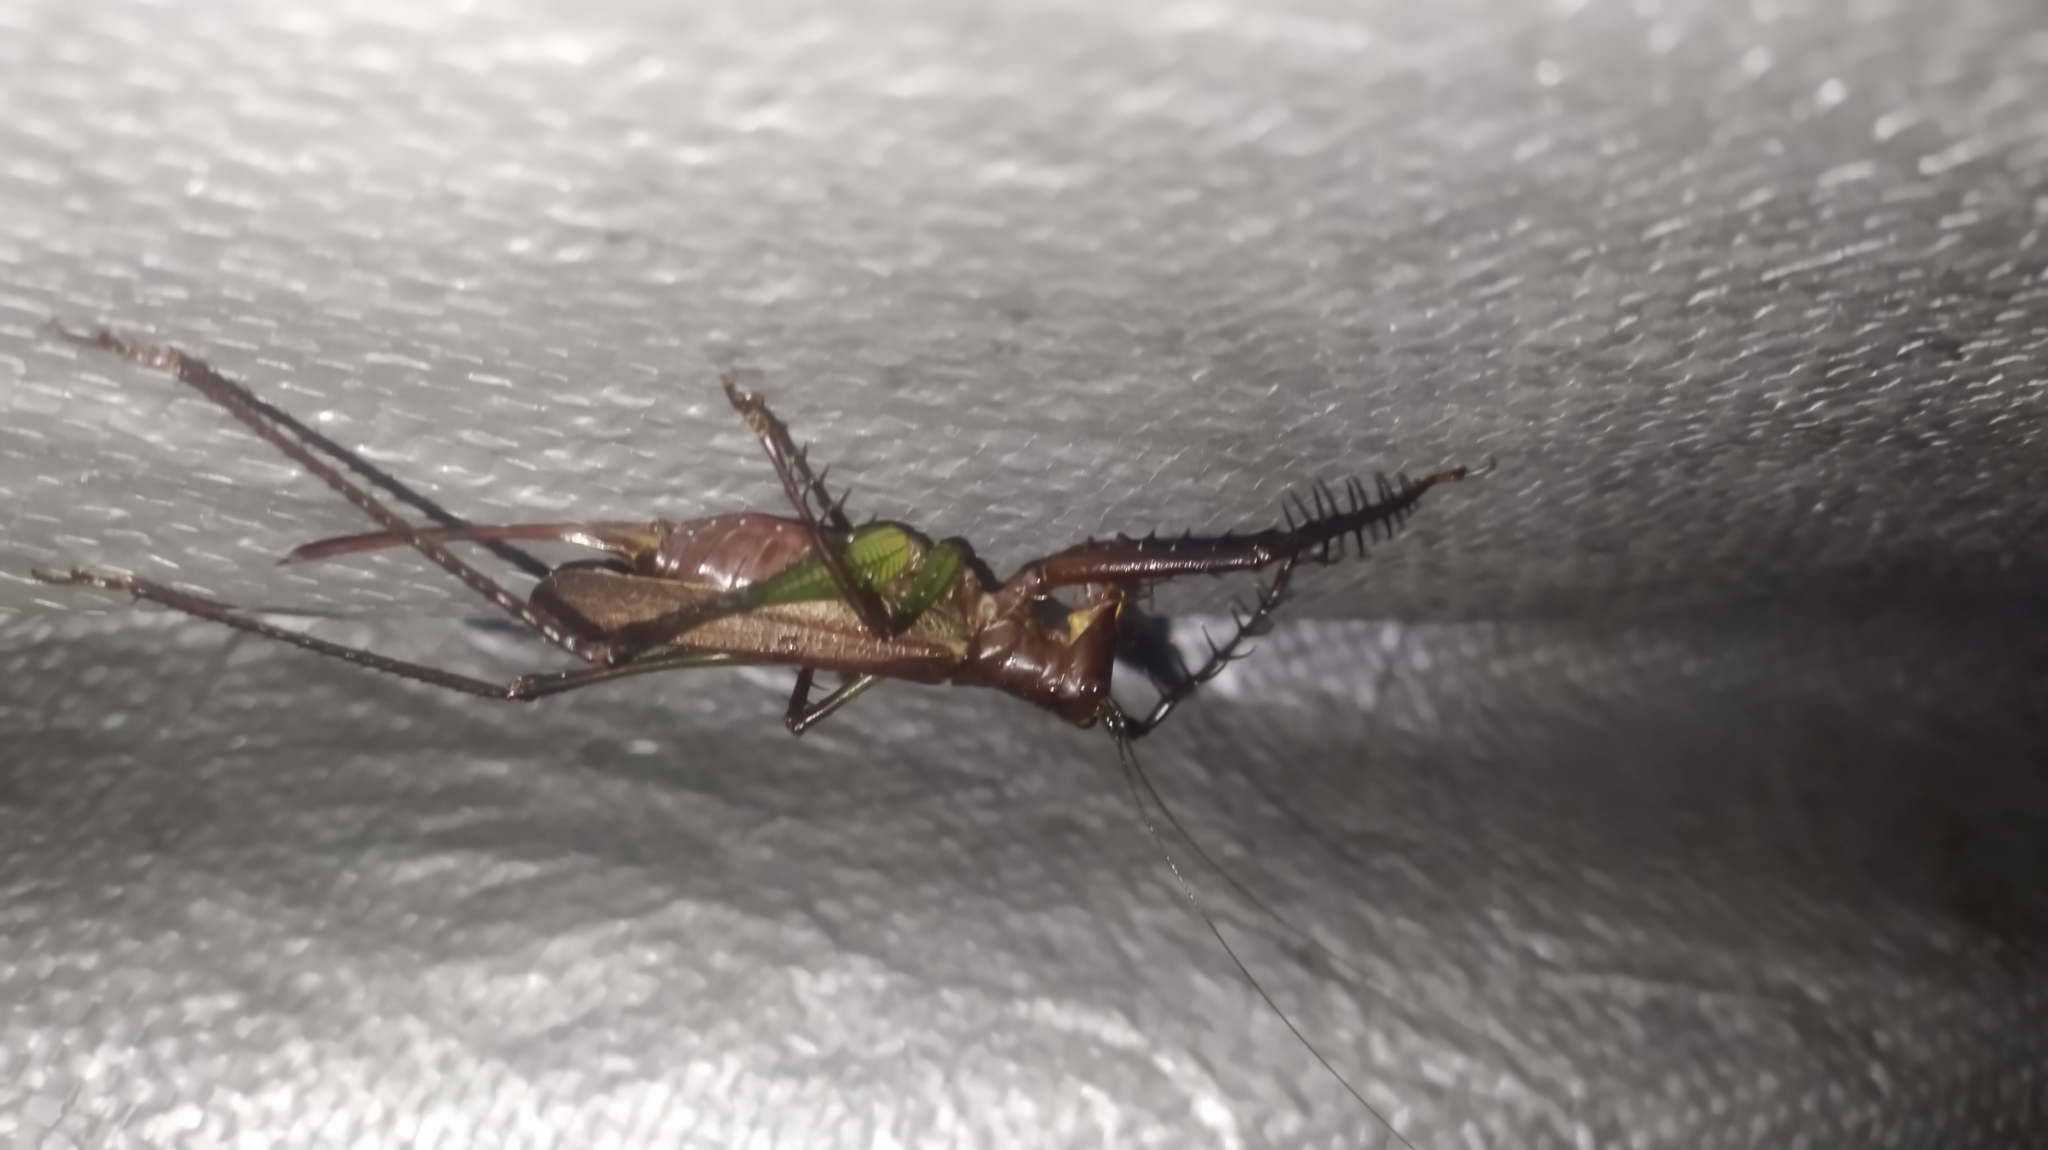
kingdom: Animalia
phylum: Arthropoda
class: Insecta
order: Orthoptera
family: Tettigoniidae
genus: Venatorellus
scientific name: Venatorellus viridipedes
